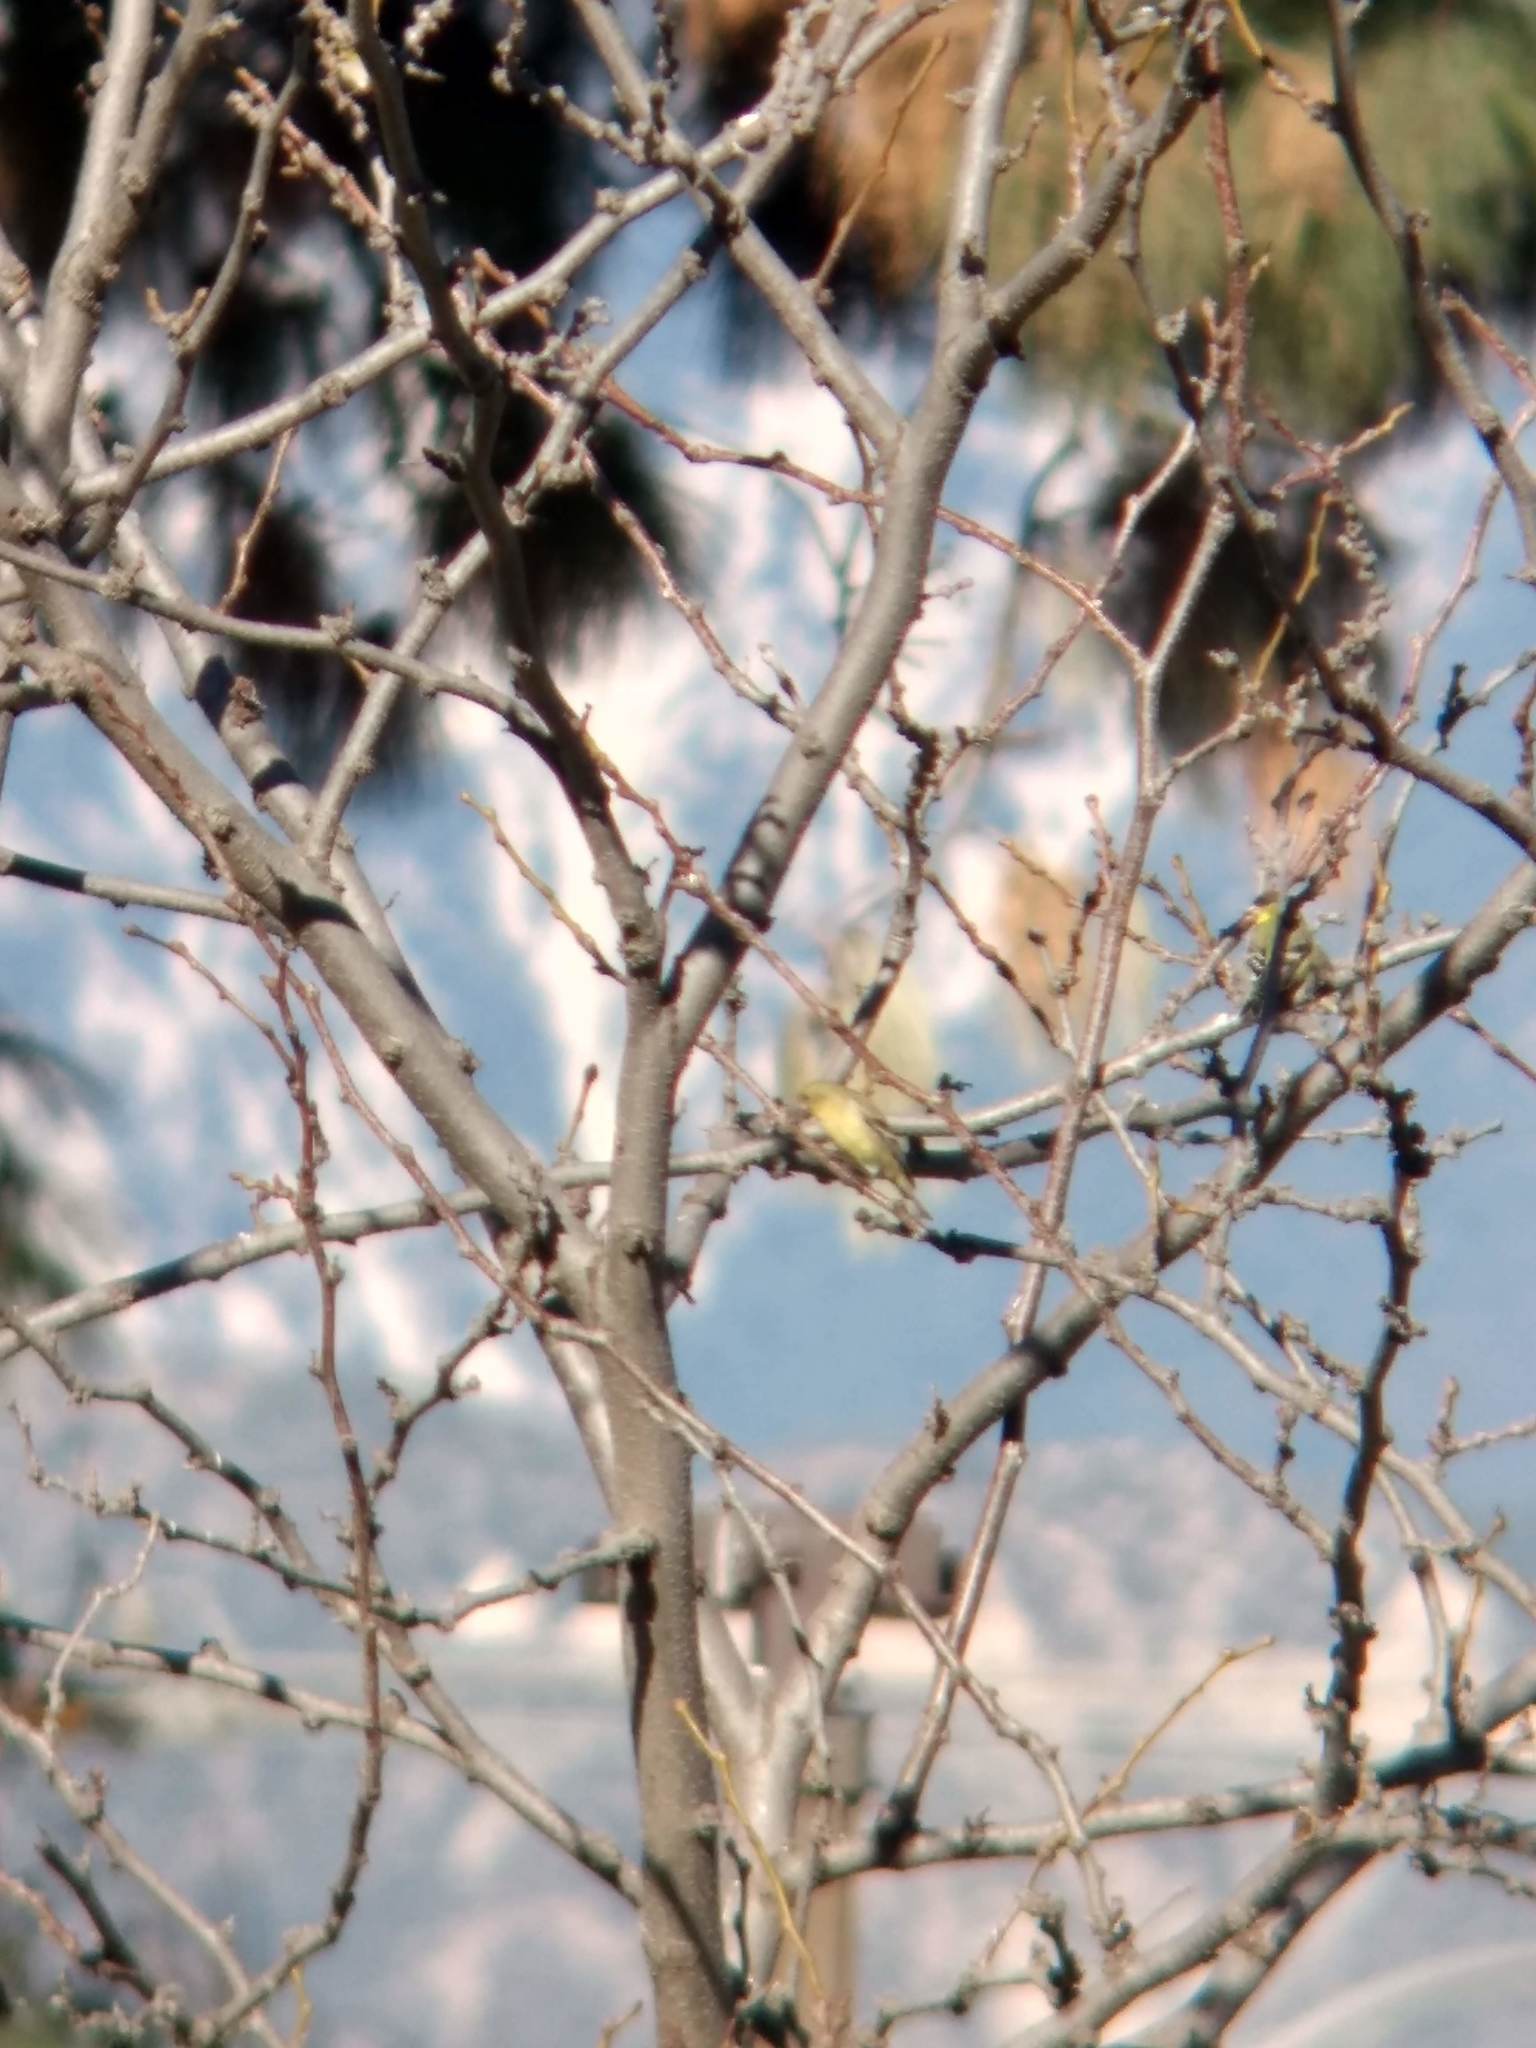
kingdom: Animalia
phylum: Chordata
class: Aves
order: Passeriformes
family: Fringillidae
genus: Spinus
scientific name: Spinus psaltria
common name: Lesser goldfinch
